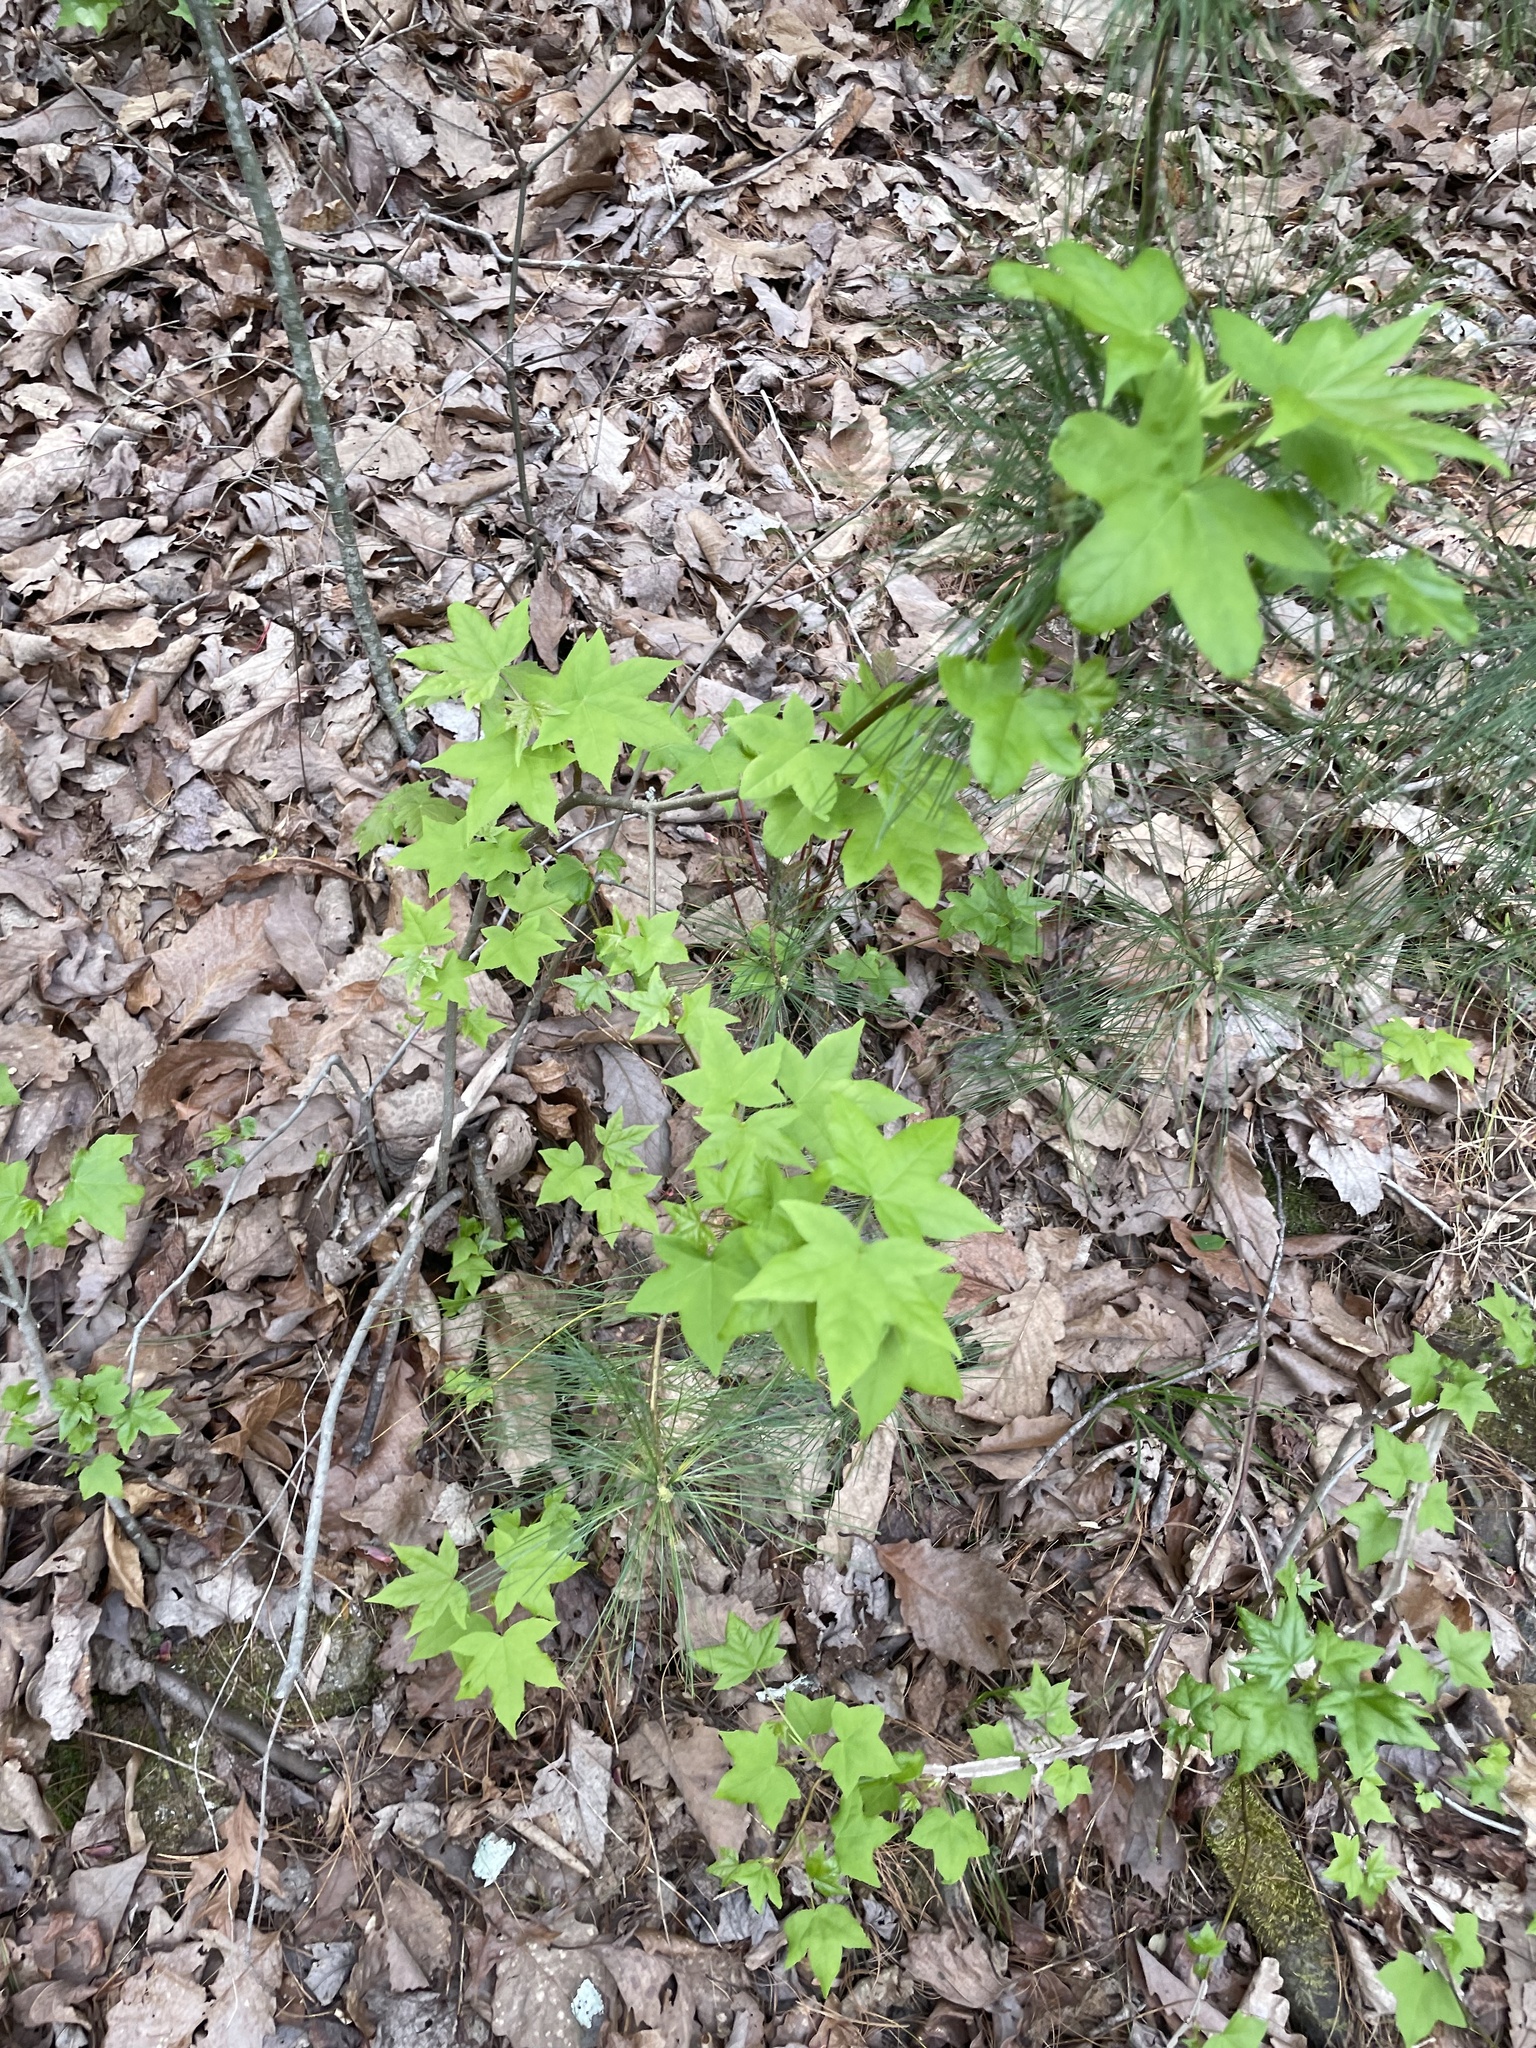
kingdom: Plantae
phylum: Tracheophyta
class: Magnoliopsida
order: Saxifragales
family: Altingiaceae
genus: Liquidambar
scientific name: Liquidambar styraciflua
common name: Sweet gum
